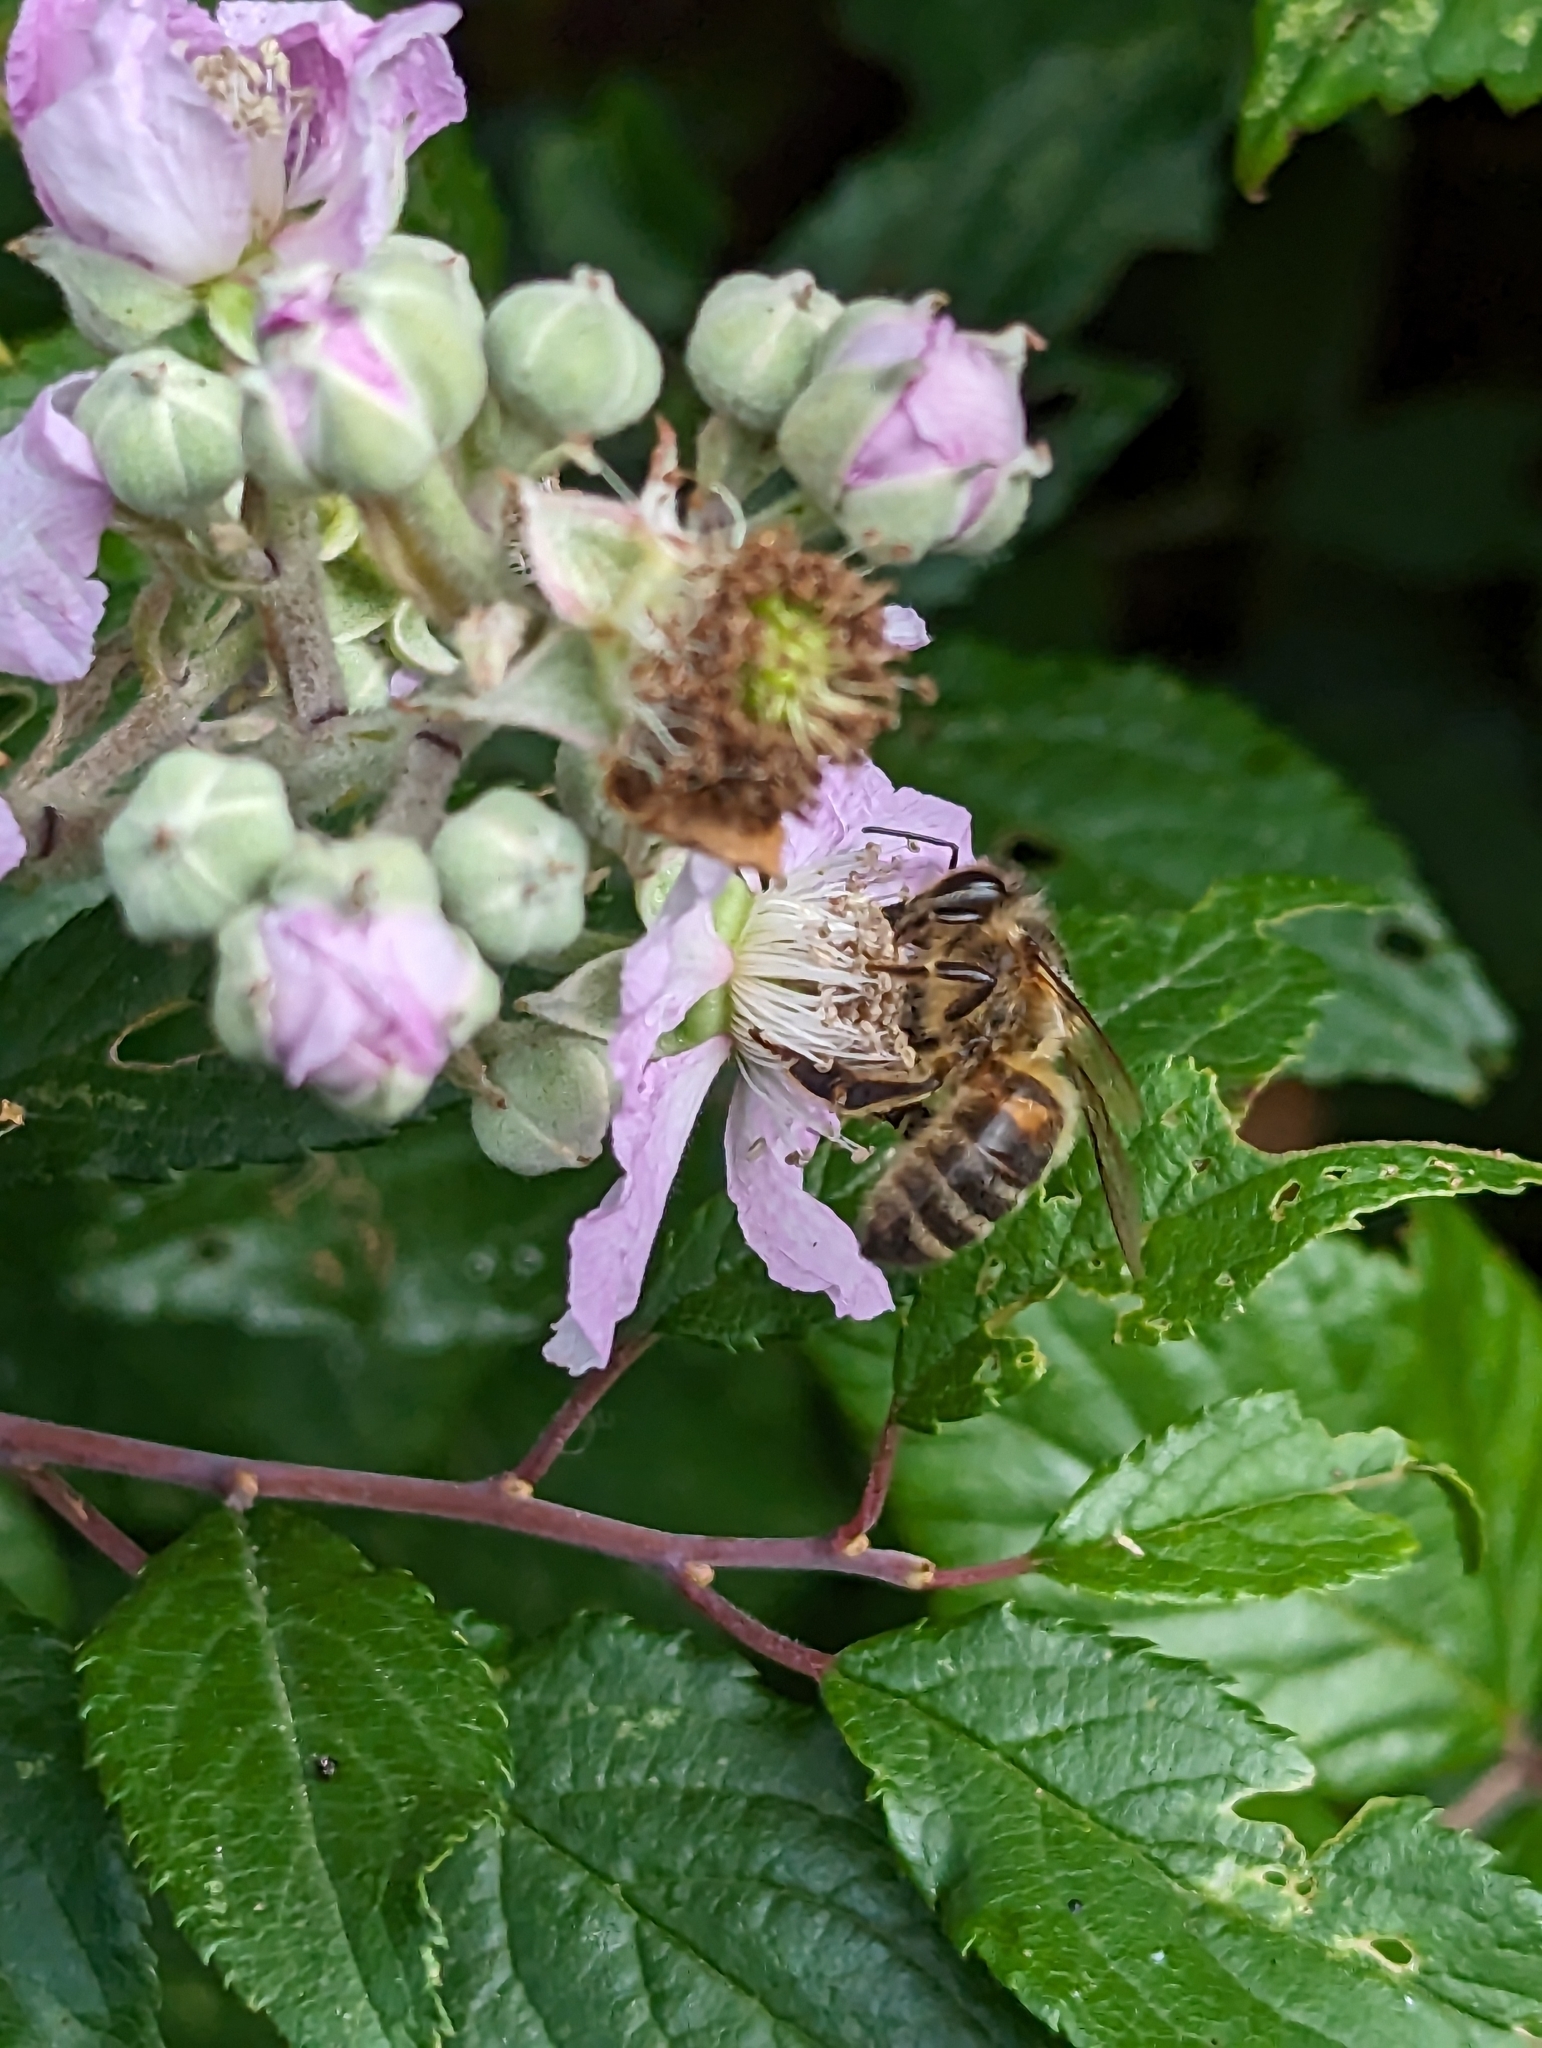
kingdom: Animalia
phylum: Arthropoda
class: Insecta
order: Hymenoptera
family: Apidae
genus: Apis
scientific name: Apis mellifera
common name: Honey bee
